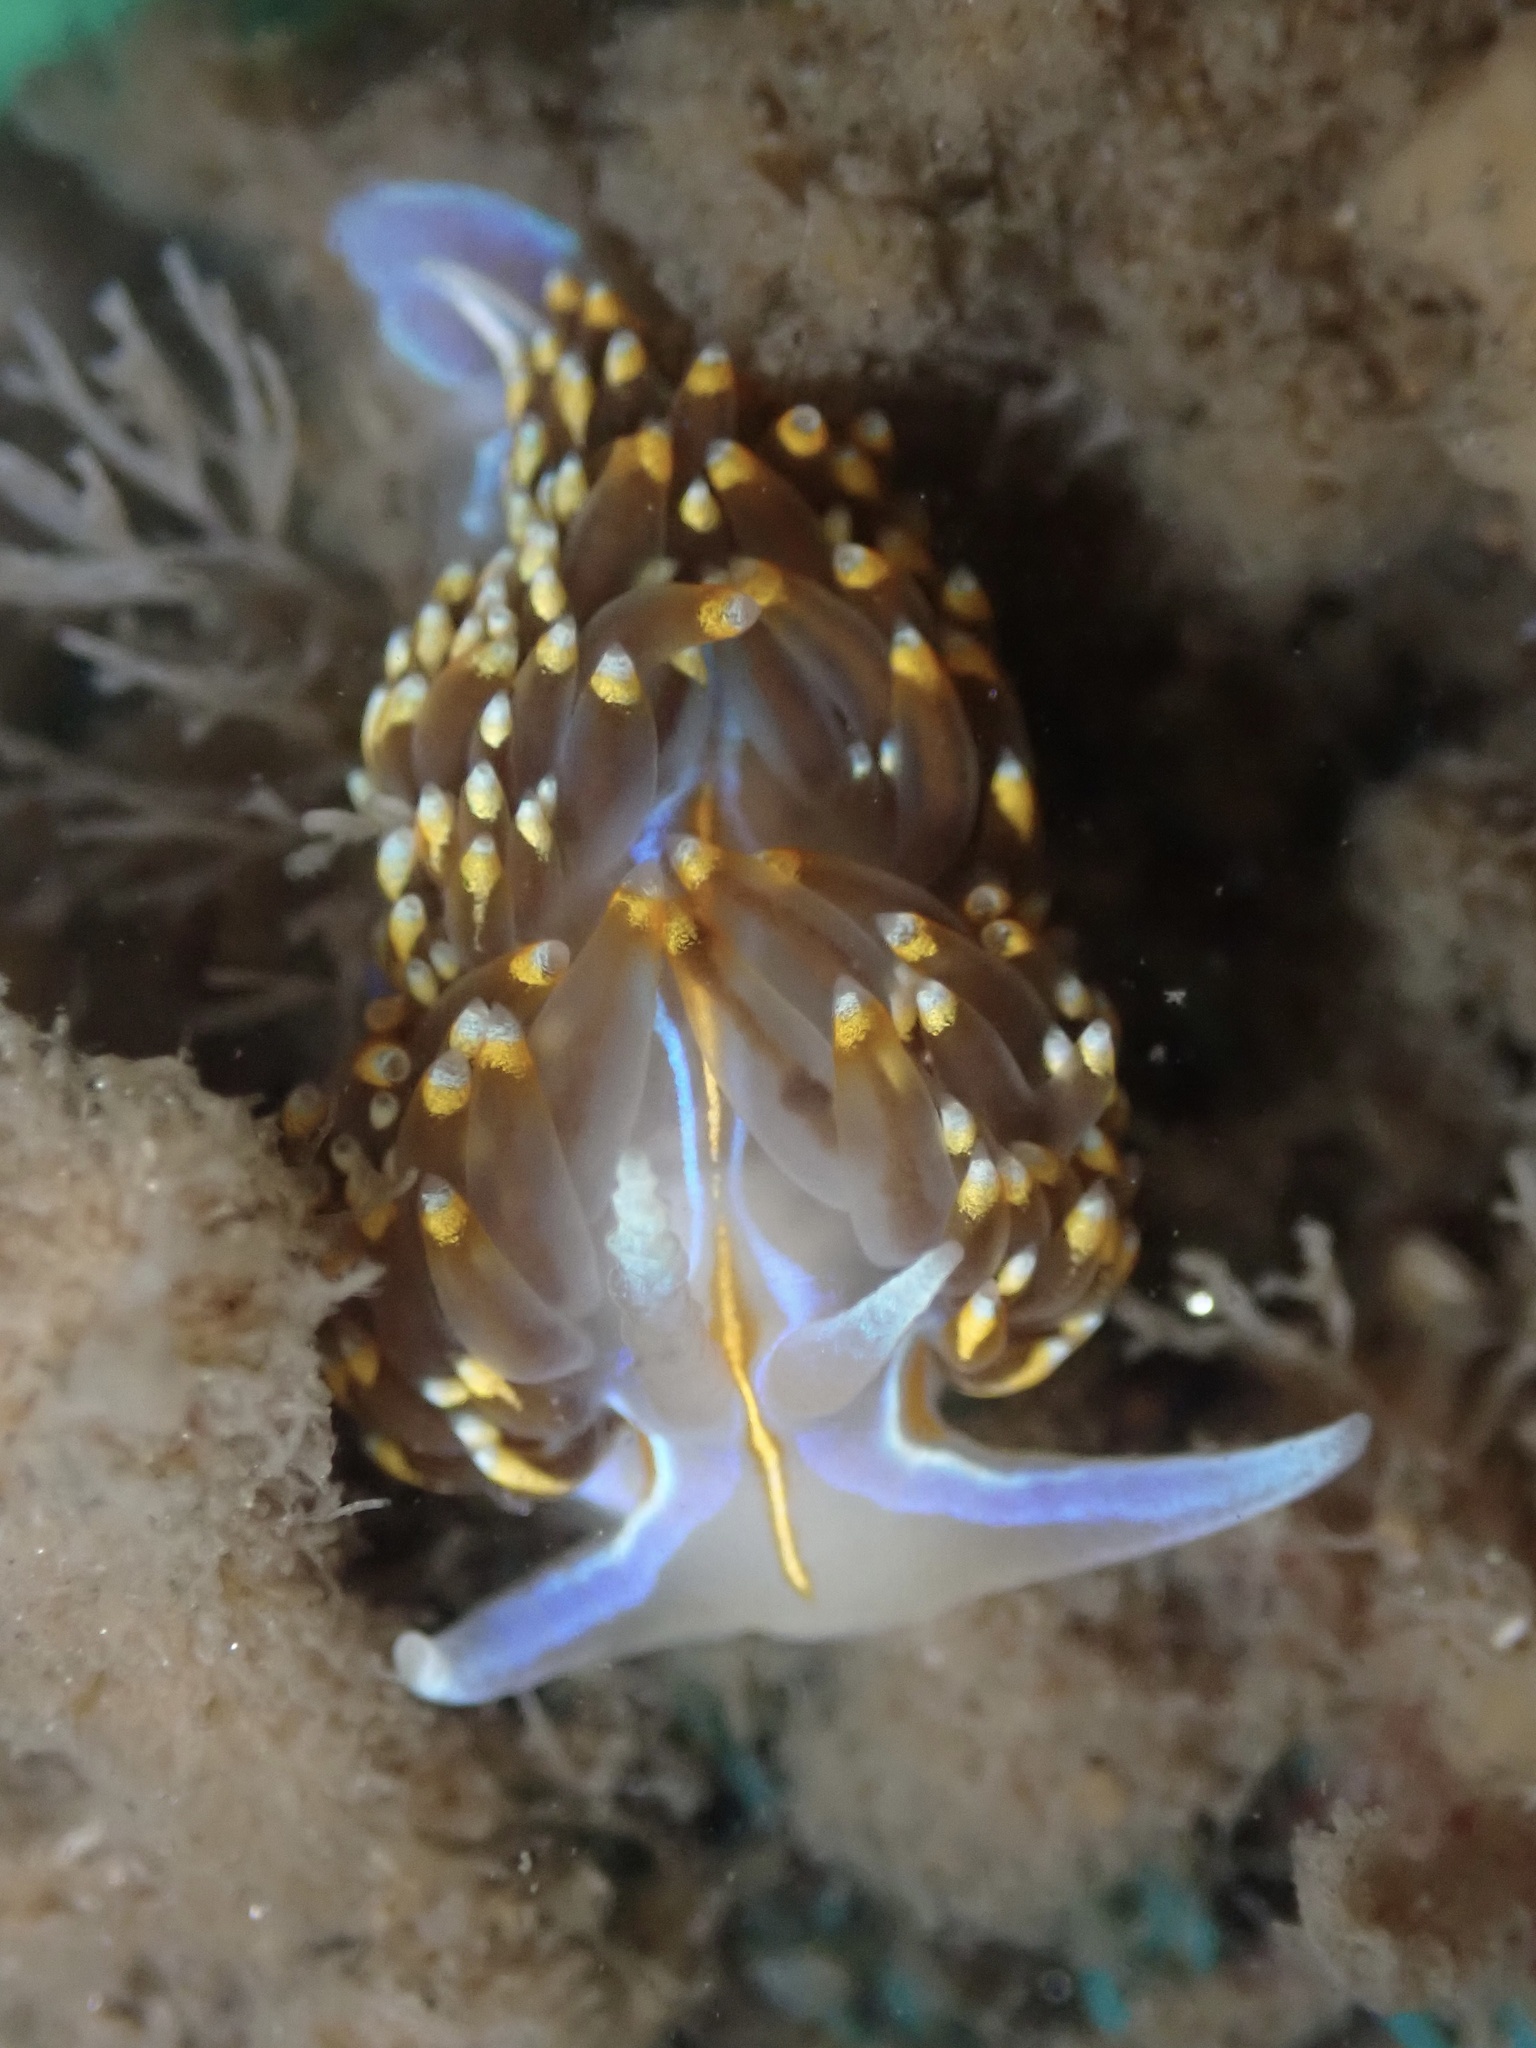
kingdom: Animalia
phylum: Mollusca
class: Gastropoda
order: Nudibranchia
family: Myrrhinidae
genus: Hermissenda
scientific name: Hermissenda opalescens
